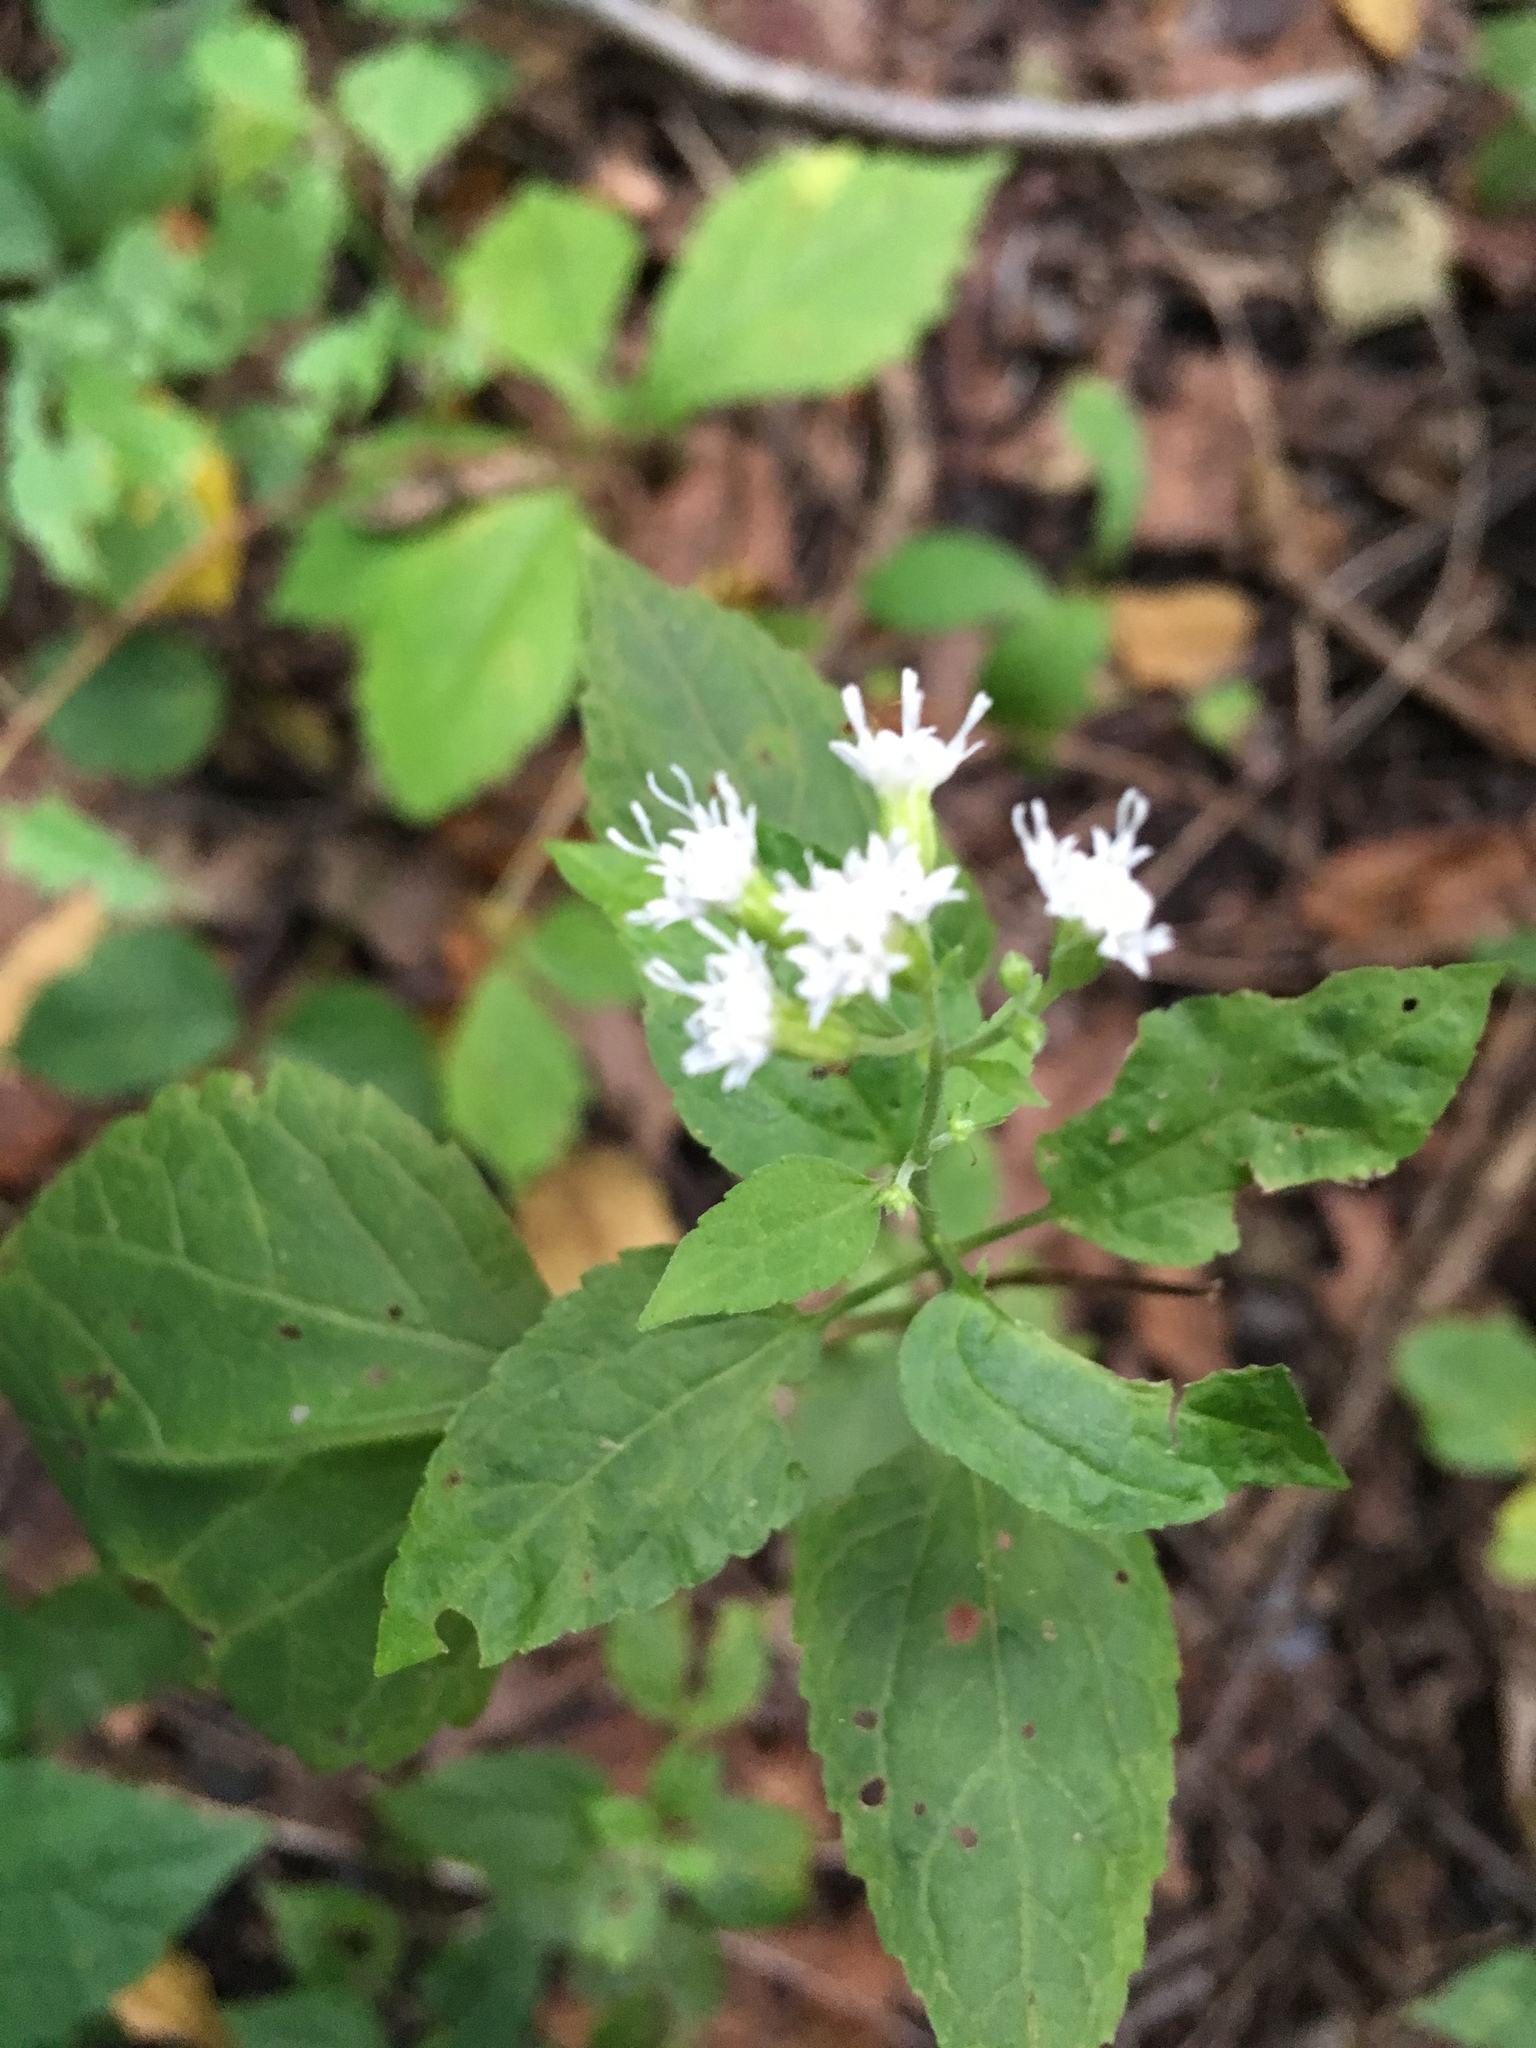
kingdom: Plantae
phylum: Tracheophyta
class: Magnoliopsida
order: Asterales
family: Asteraceae
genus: Ageratina
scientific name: Ageratina altissima
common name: White snakeroot
